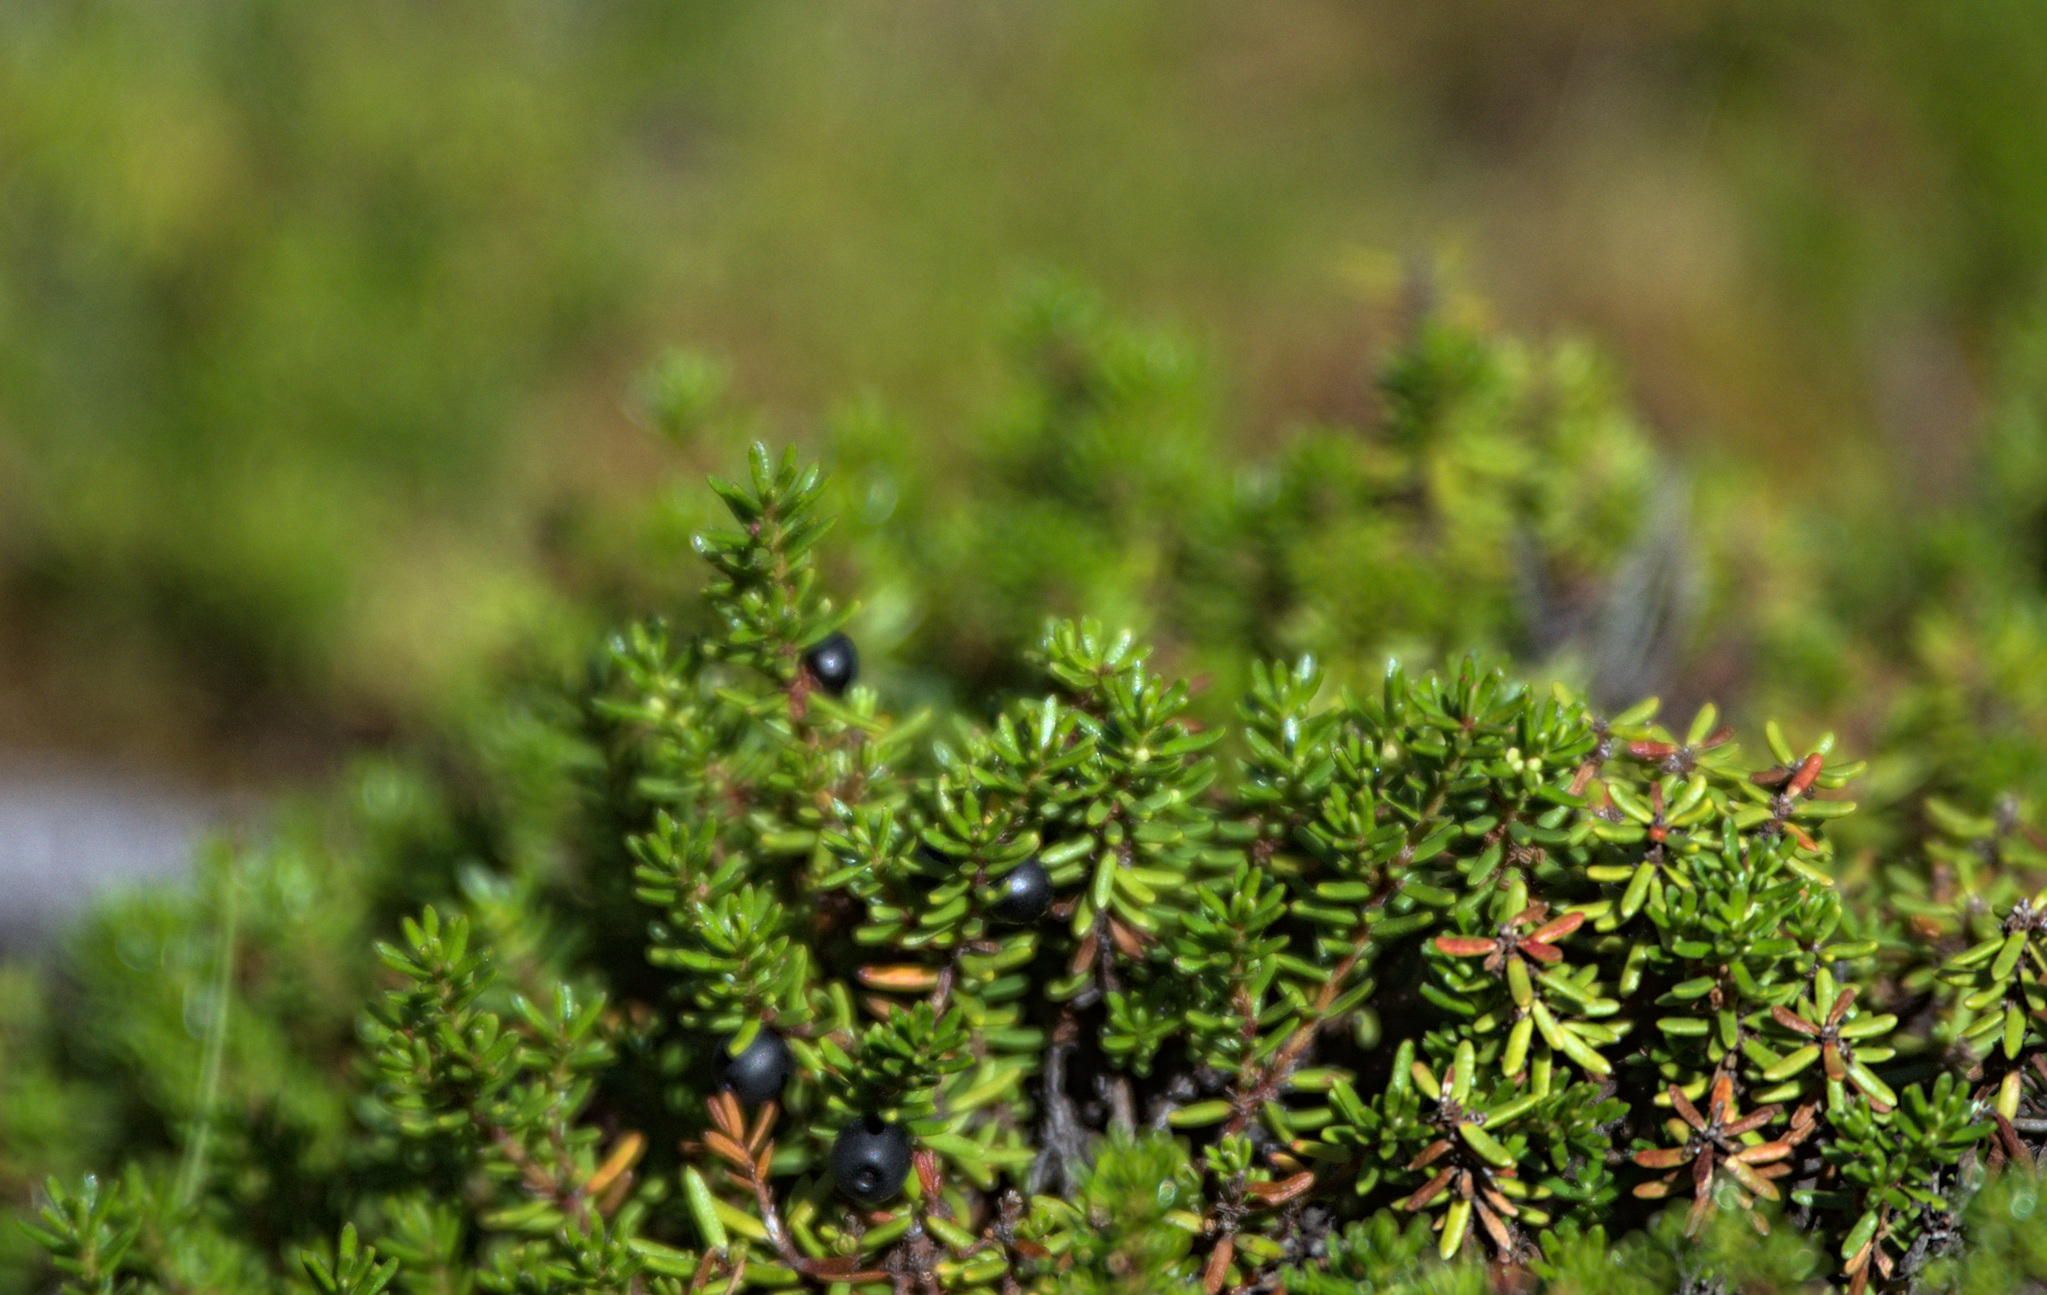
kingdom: Plantae
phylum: Tracheophyta
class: Magnoliopsida
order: Ericales
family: Ericaceae
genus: Empetrum
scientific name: Empetrum nigrum
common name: Black crowberry
